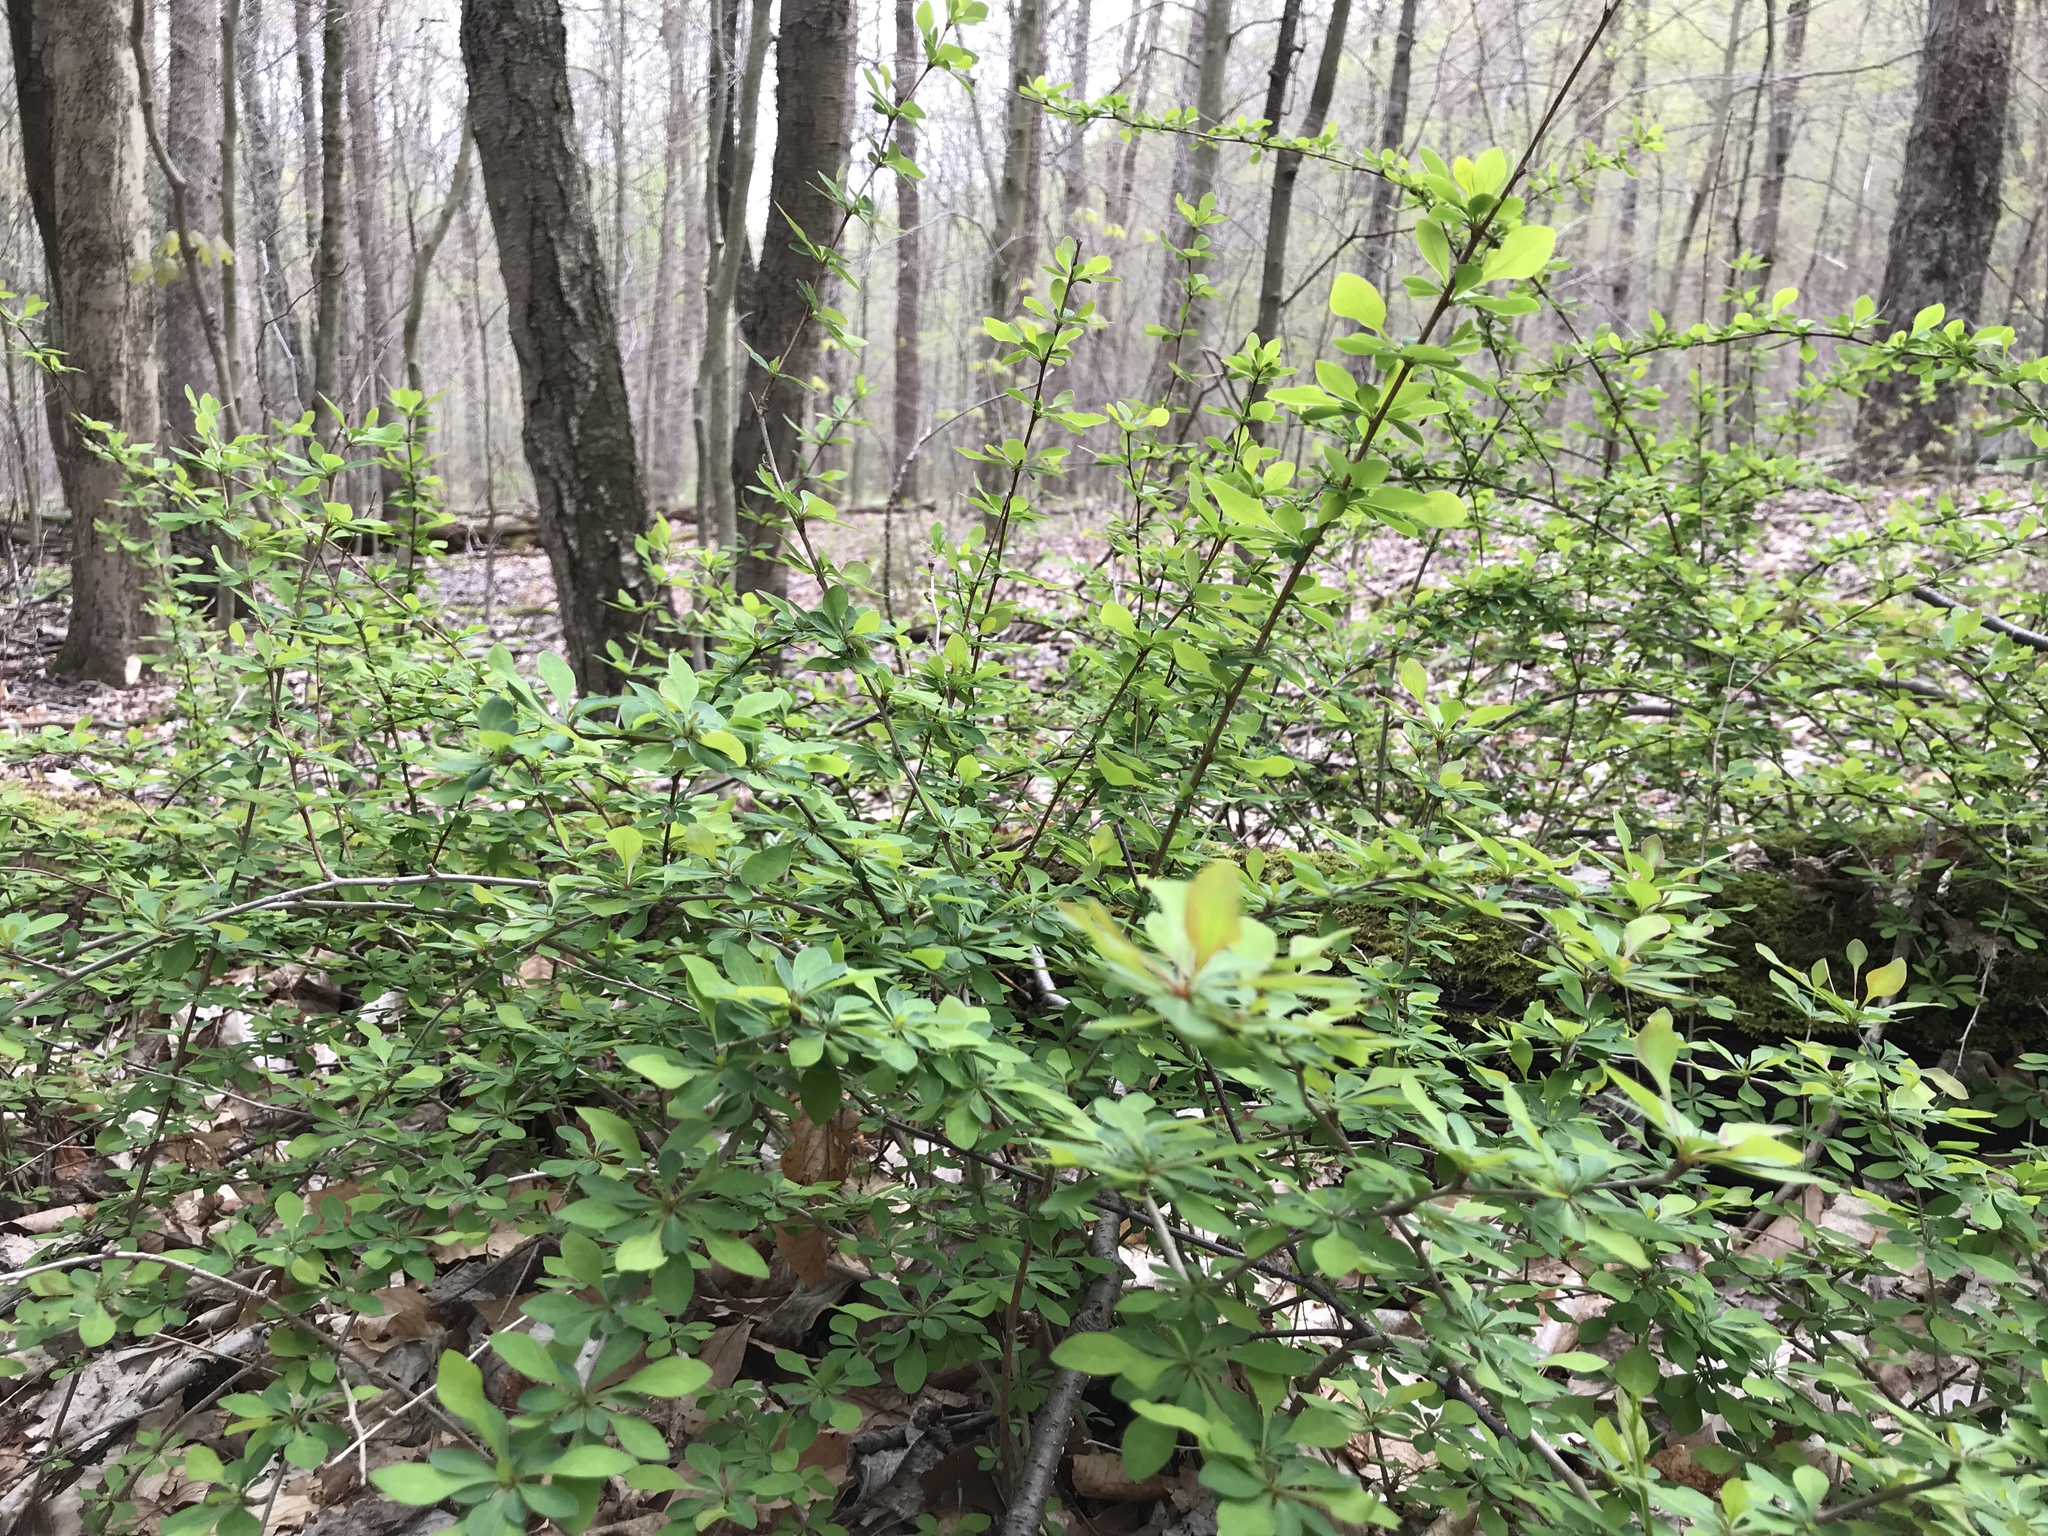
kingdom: Plantae
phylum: Tracheophyta
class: Magnoliopsida
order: Ranunculales
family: Berberidaceae
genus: Berberis
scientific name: Berberis thunbergii
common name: Japanese barberry
